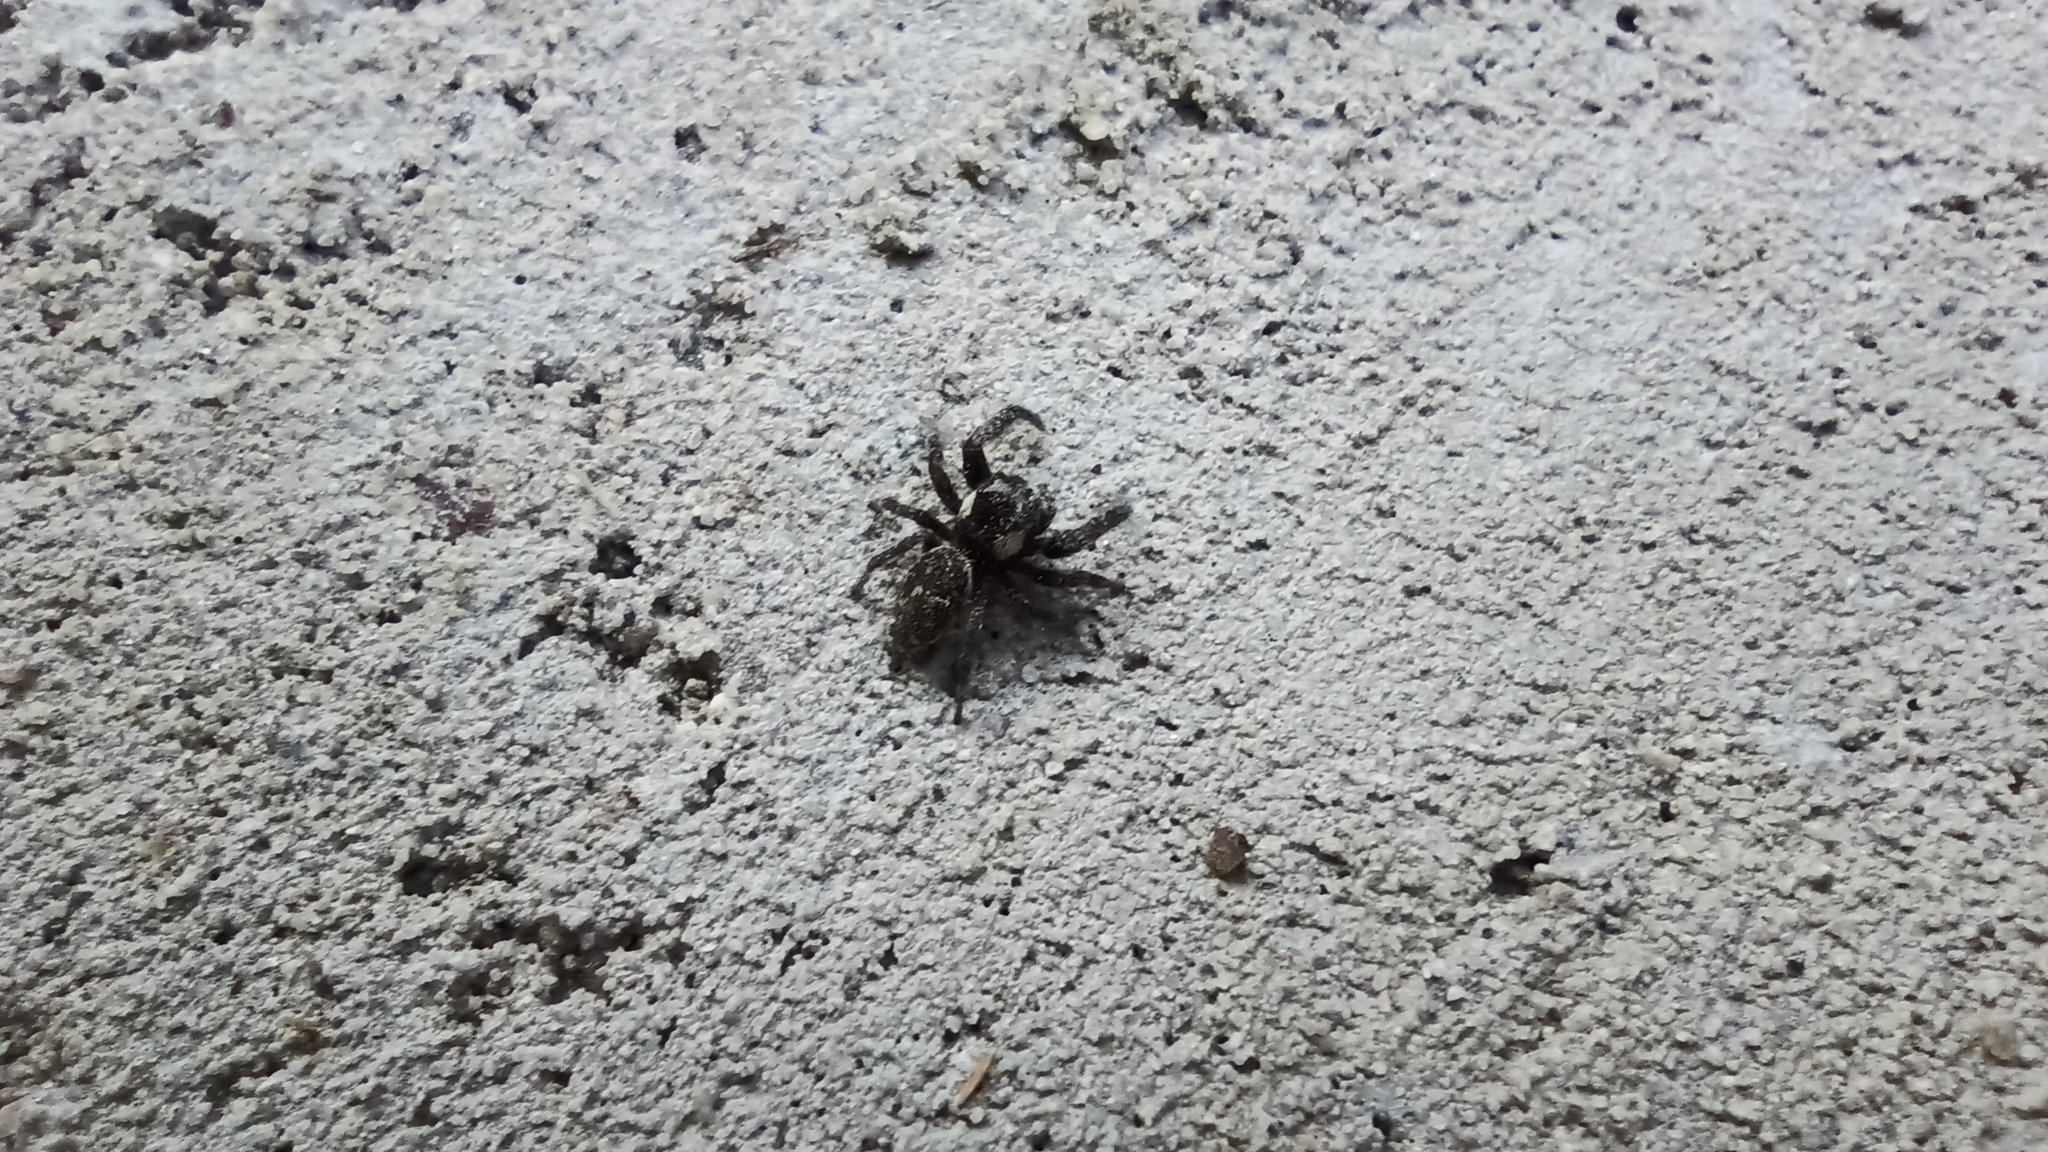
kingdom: Animalia
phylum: Arthropoda
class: Arachnida
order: Araneae
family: Salticidae
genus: Macaroeris
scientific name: Macaroeris nidicolens
